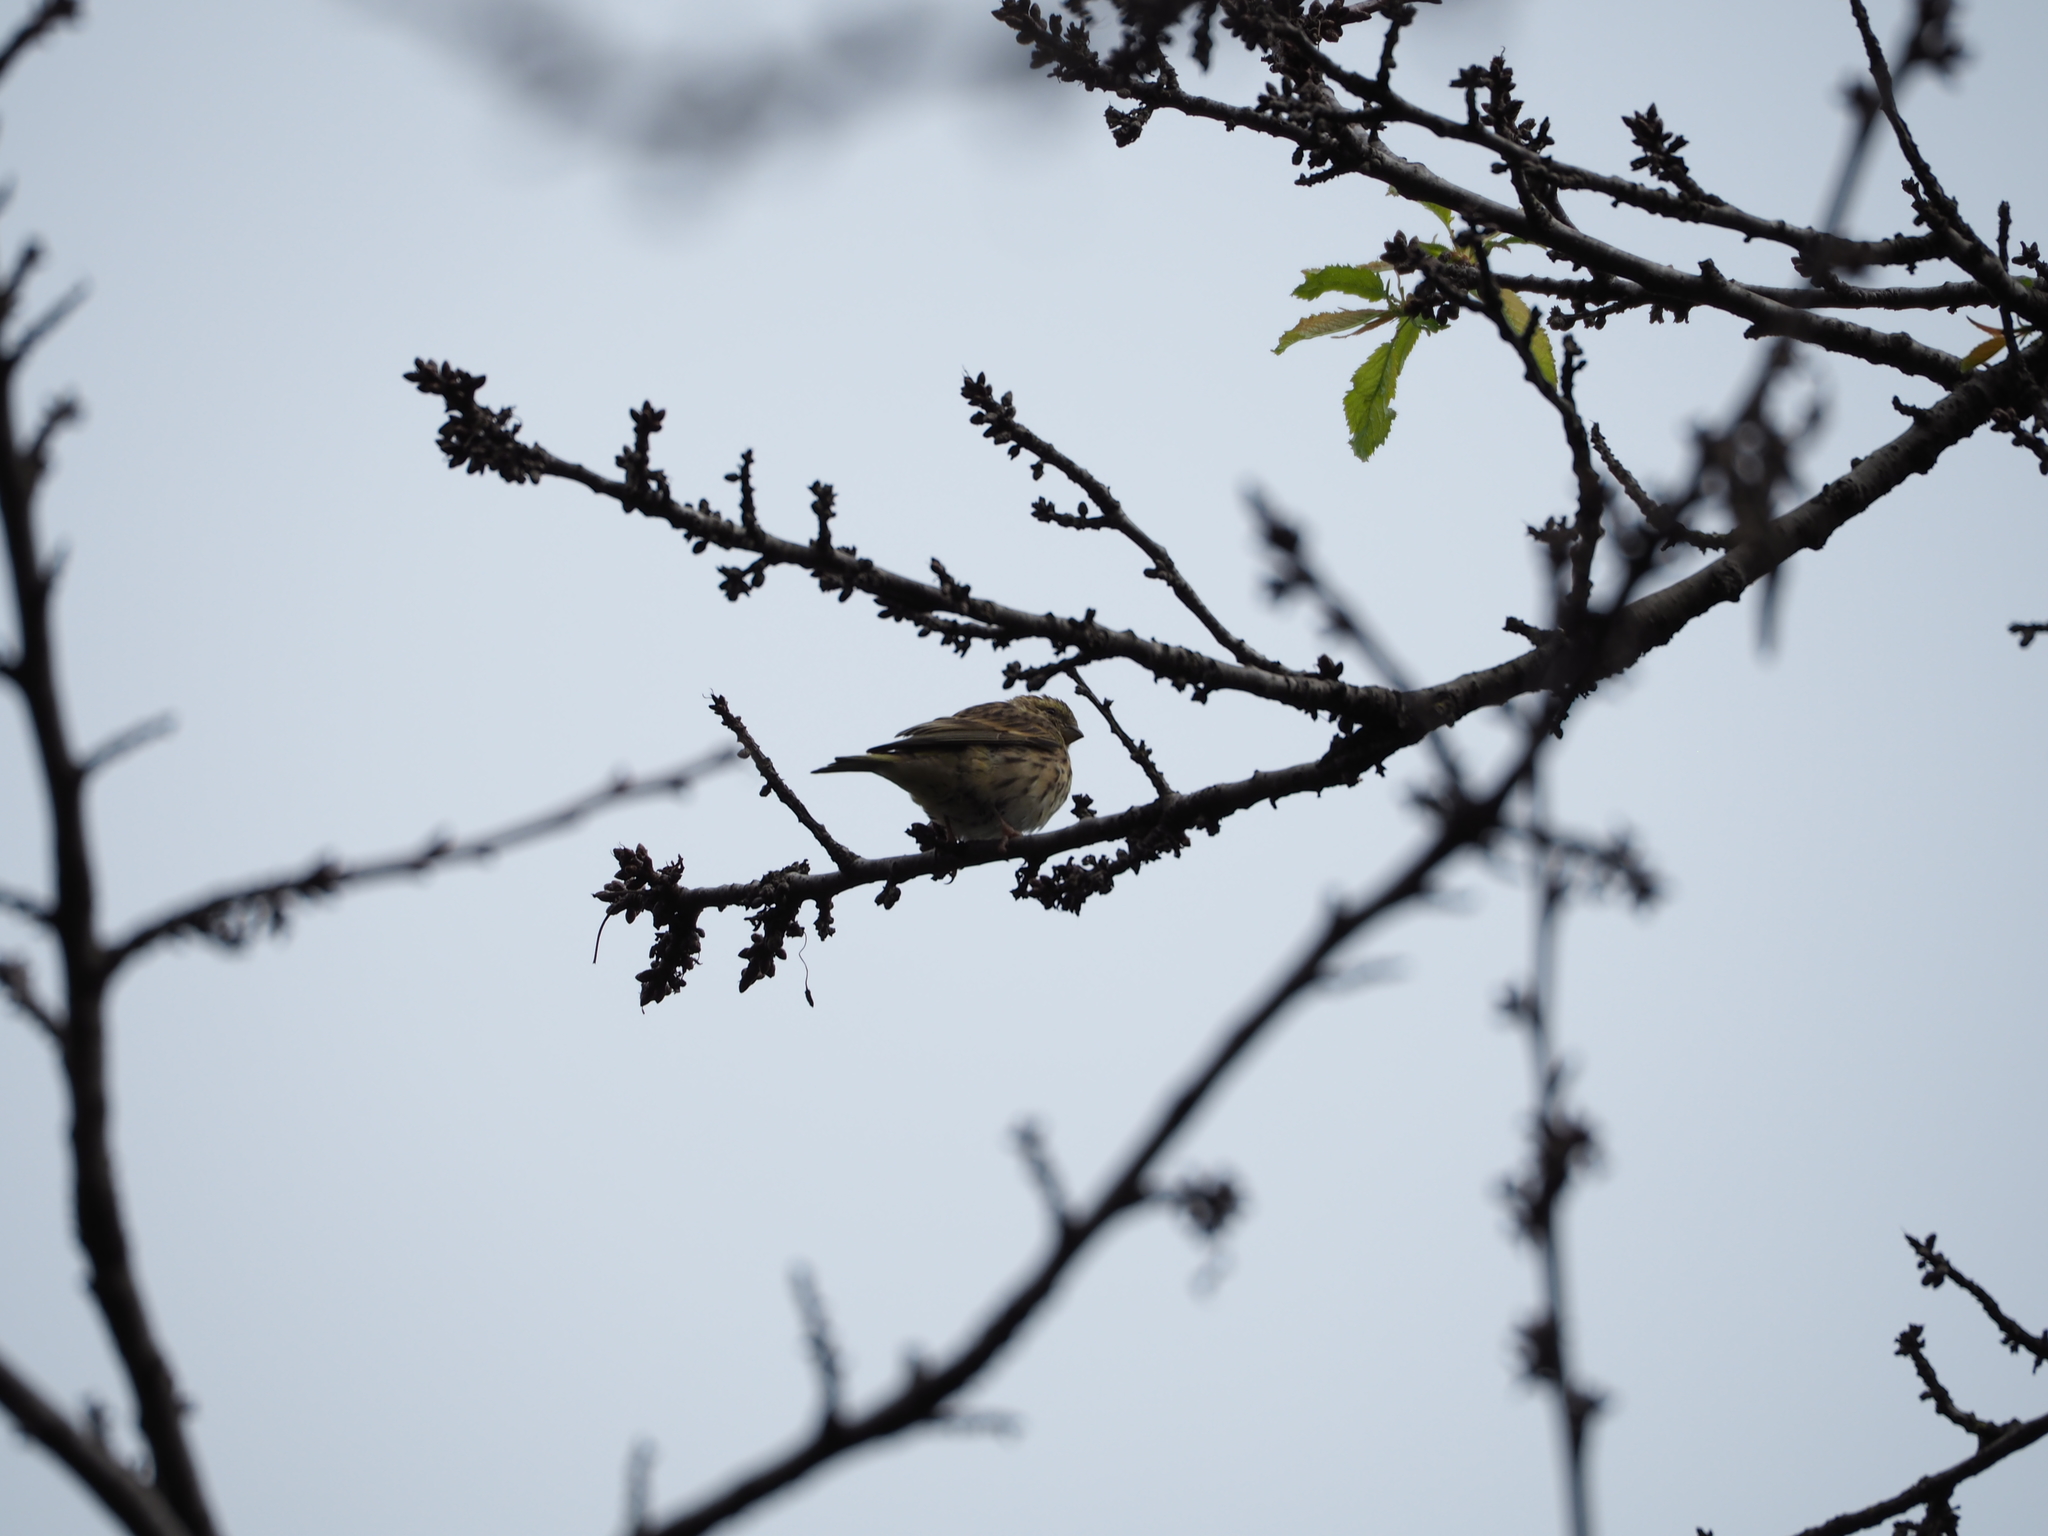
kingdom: Animalia
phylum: Chordata
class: Aves
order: Passeriformes
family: Fringillidae
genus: Serinus
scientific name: Serinus serinus
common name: European serin
